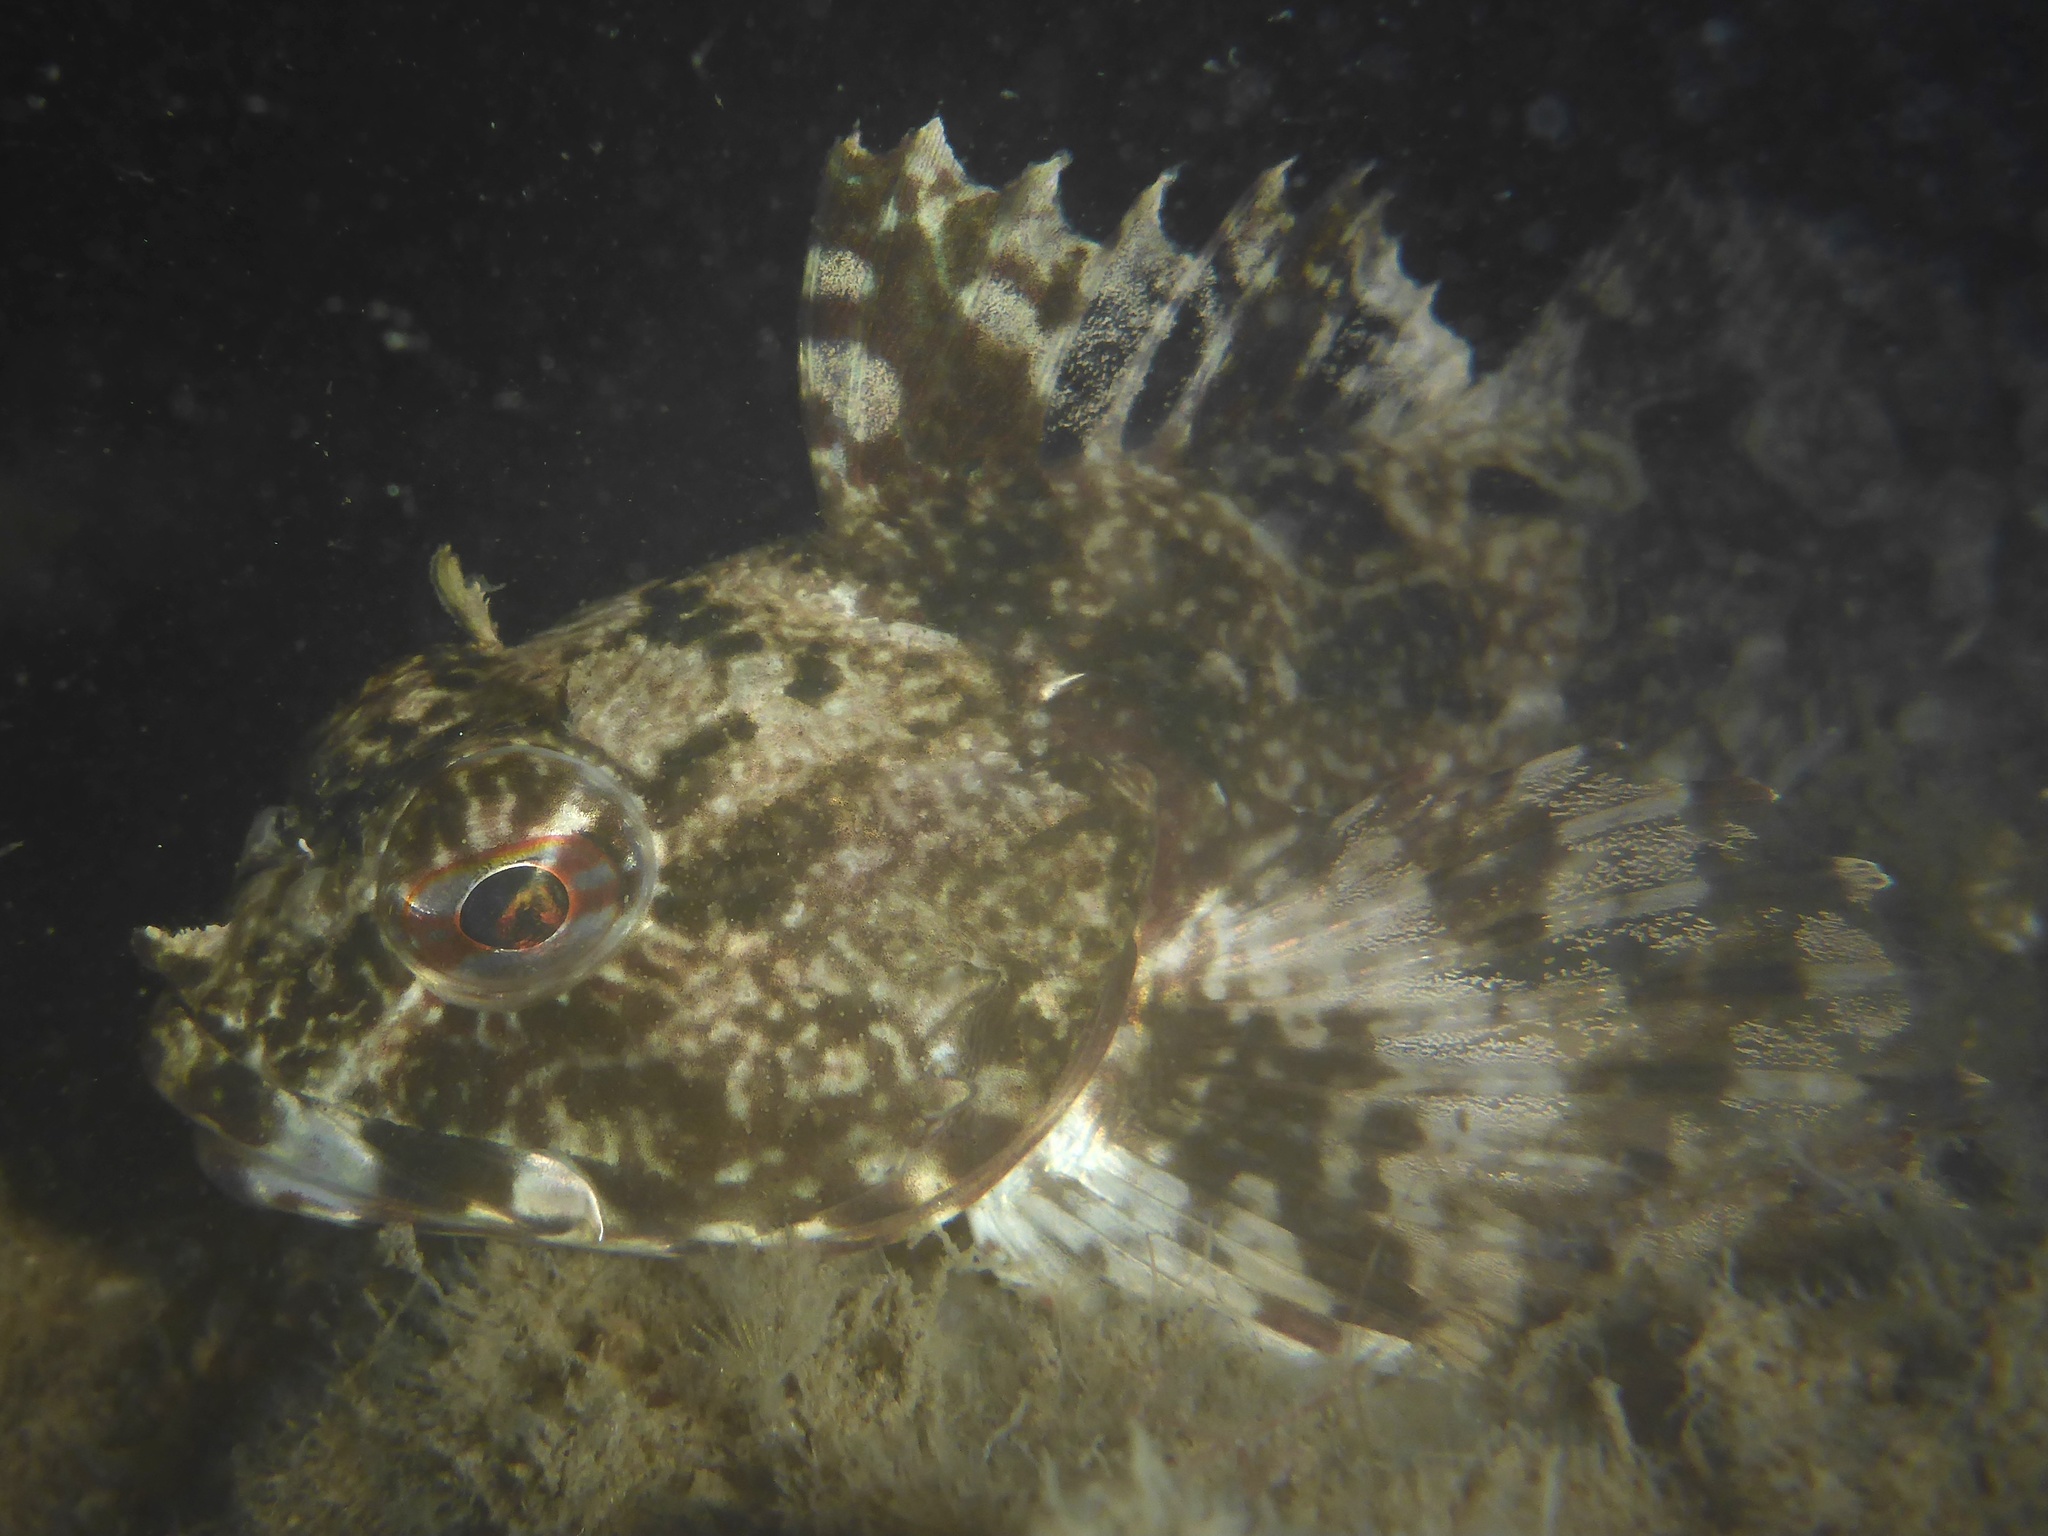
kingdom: Animalia
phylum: Chordata
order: Scorpaeniformes
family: Cottidae
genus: Scorpaenichthys
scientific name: Scorpaenichthys marmoratus
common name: Cabezon
